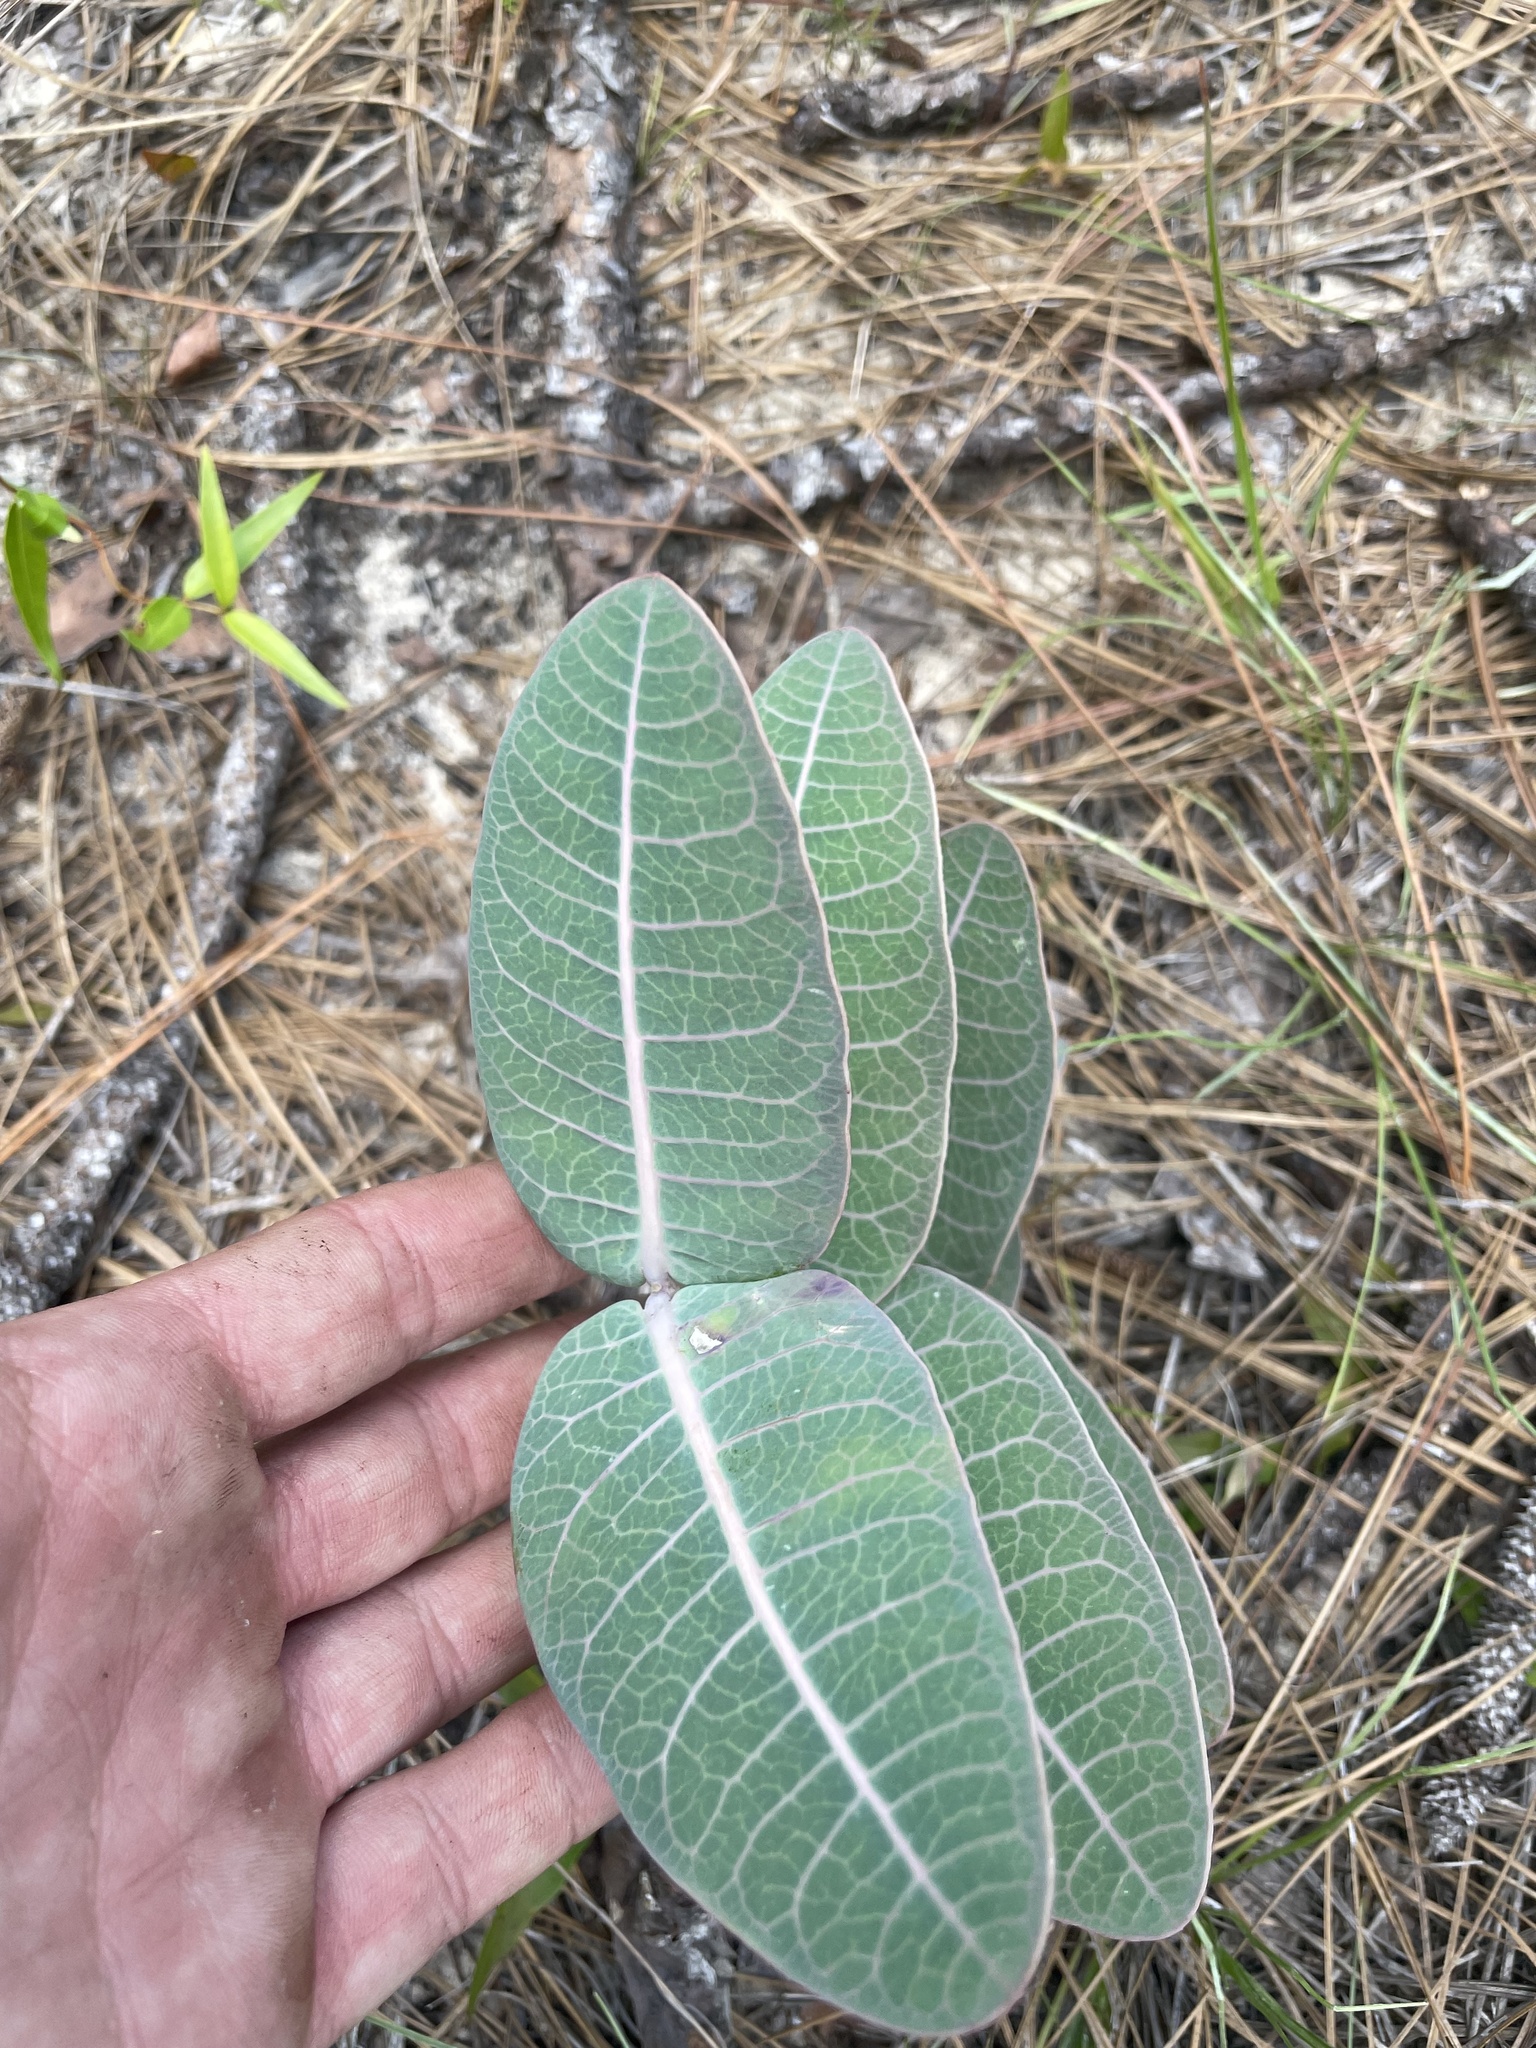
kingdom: Plantae
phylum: Tracheophyta
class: Magnoliopsida
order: Gentianales
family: Apocynaceae
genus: Asclepias
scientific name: Asclepias humistrata
